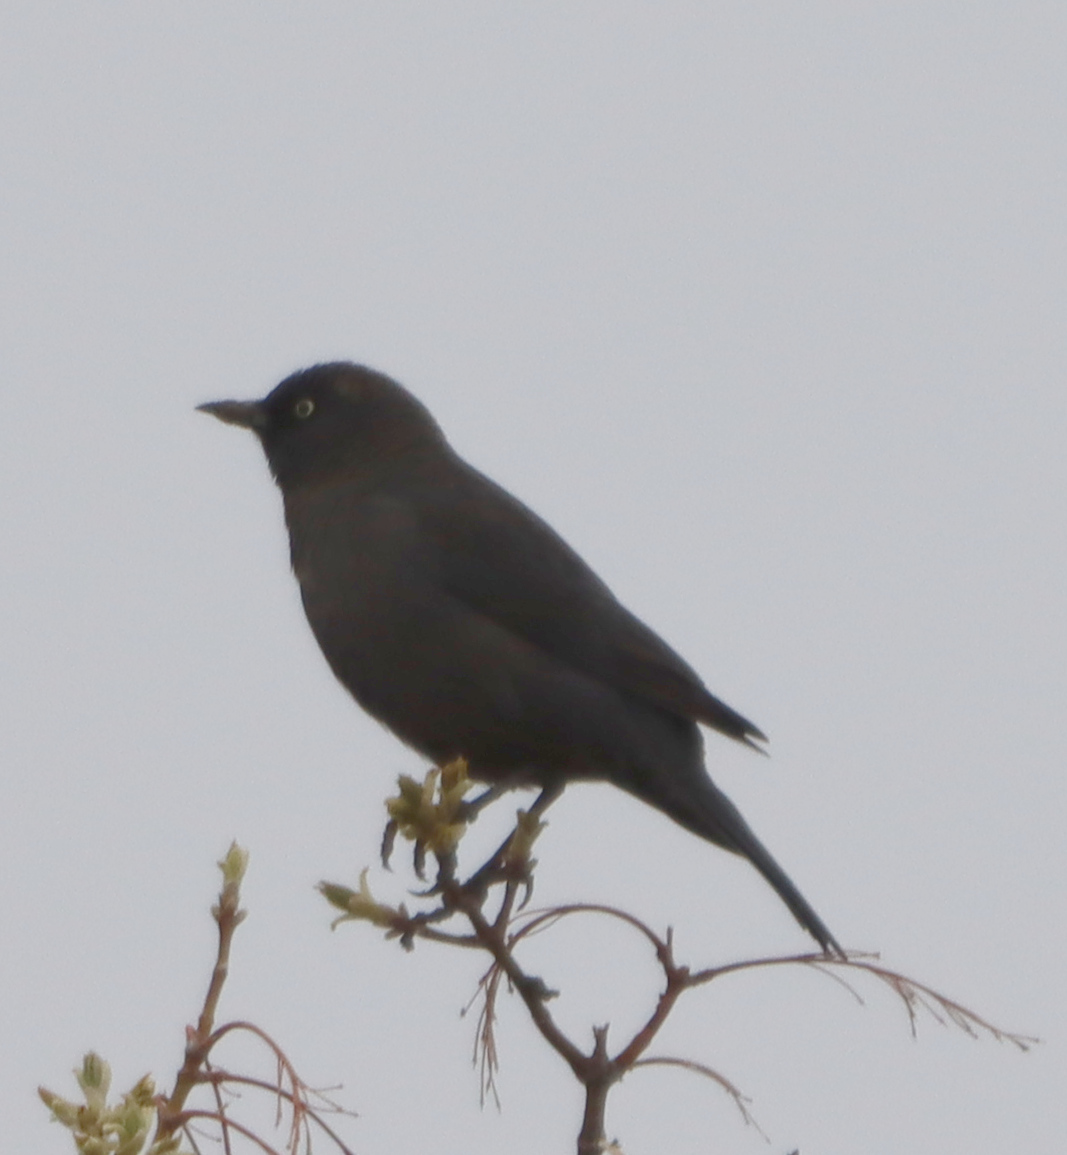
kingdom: Animalia
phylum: Chordata
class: Aves
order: Passeriformes
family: Icteridae
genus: Euphagus
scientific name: Euphagus carolinus
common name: Rusty blackbird
